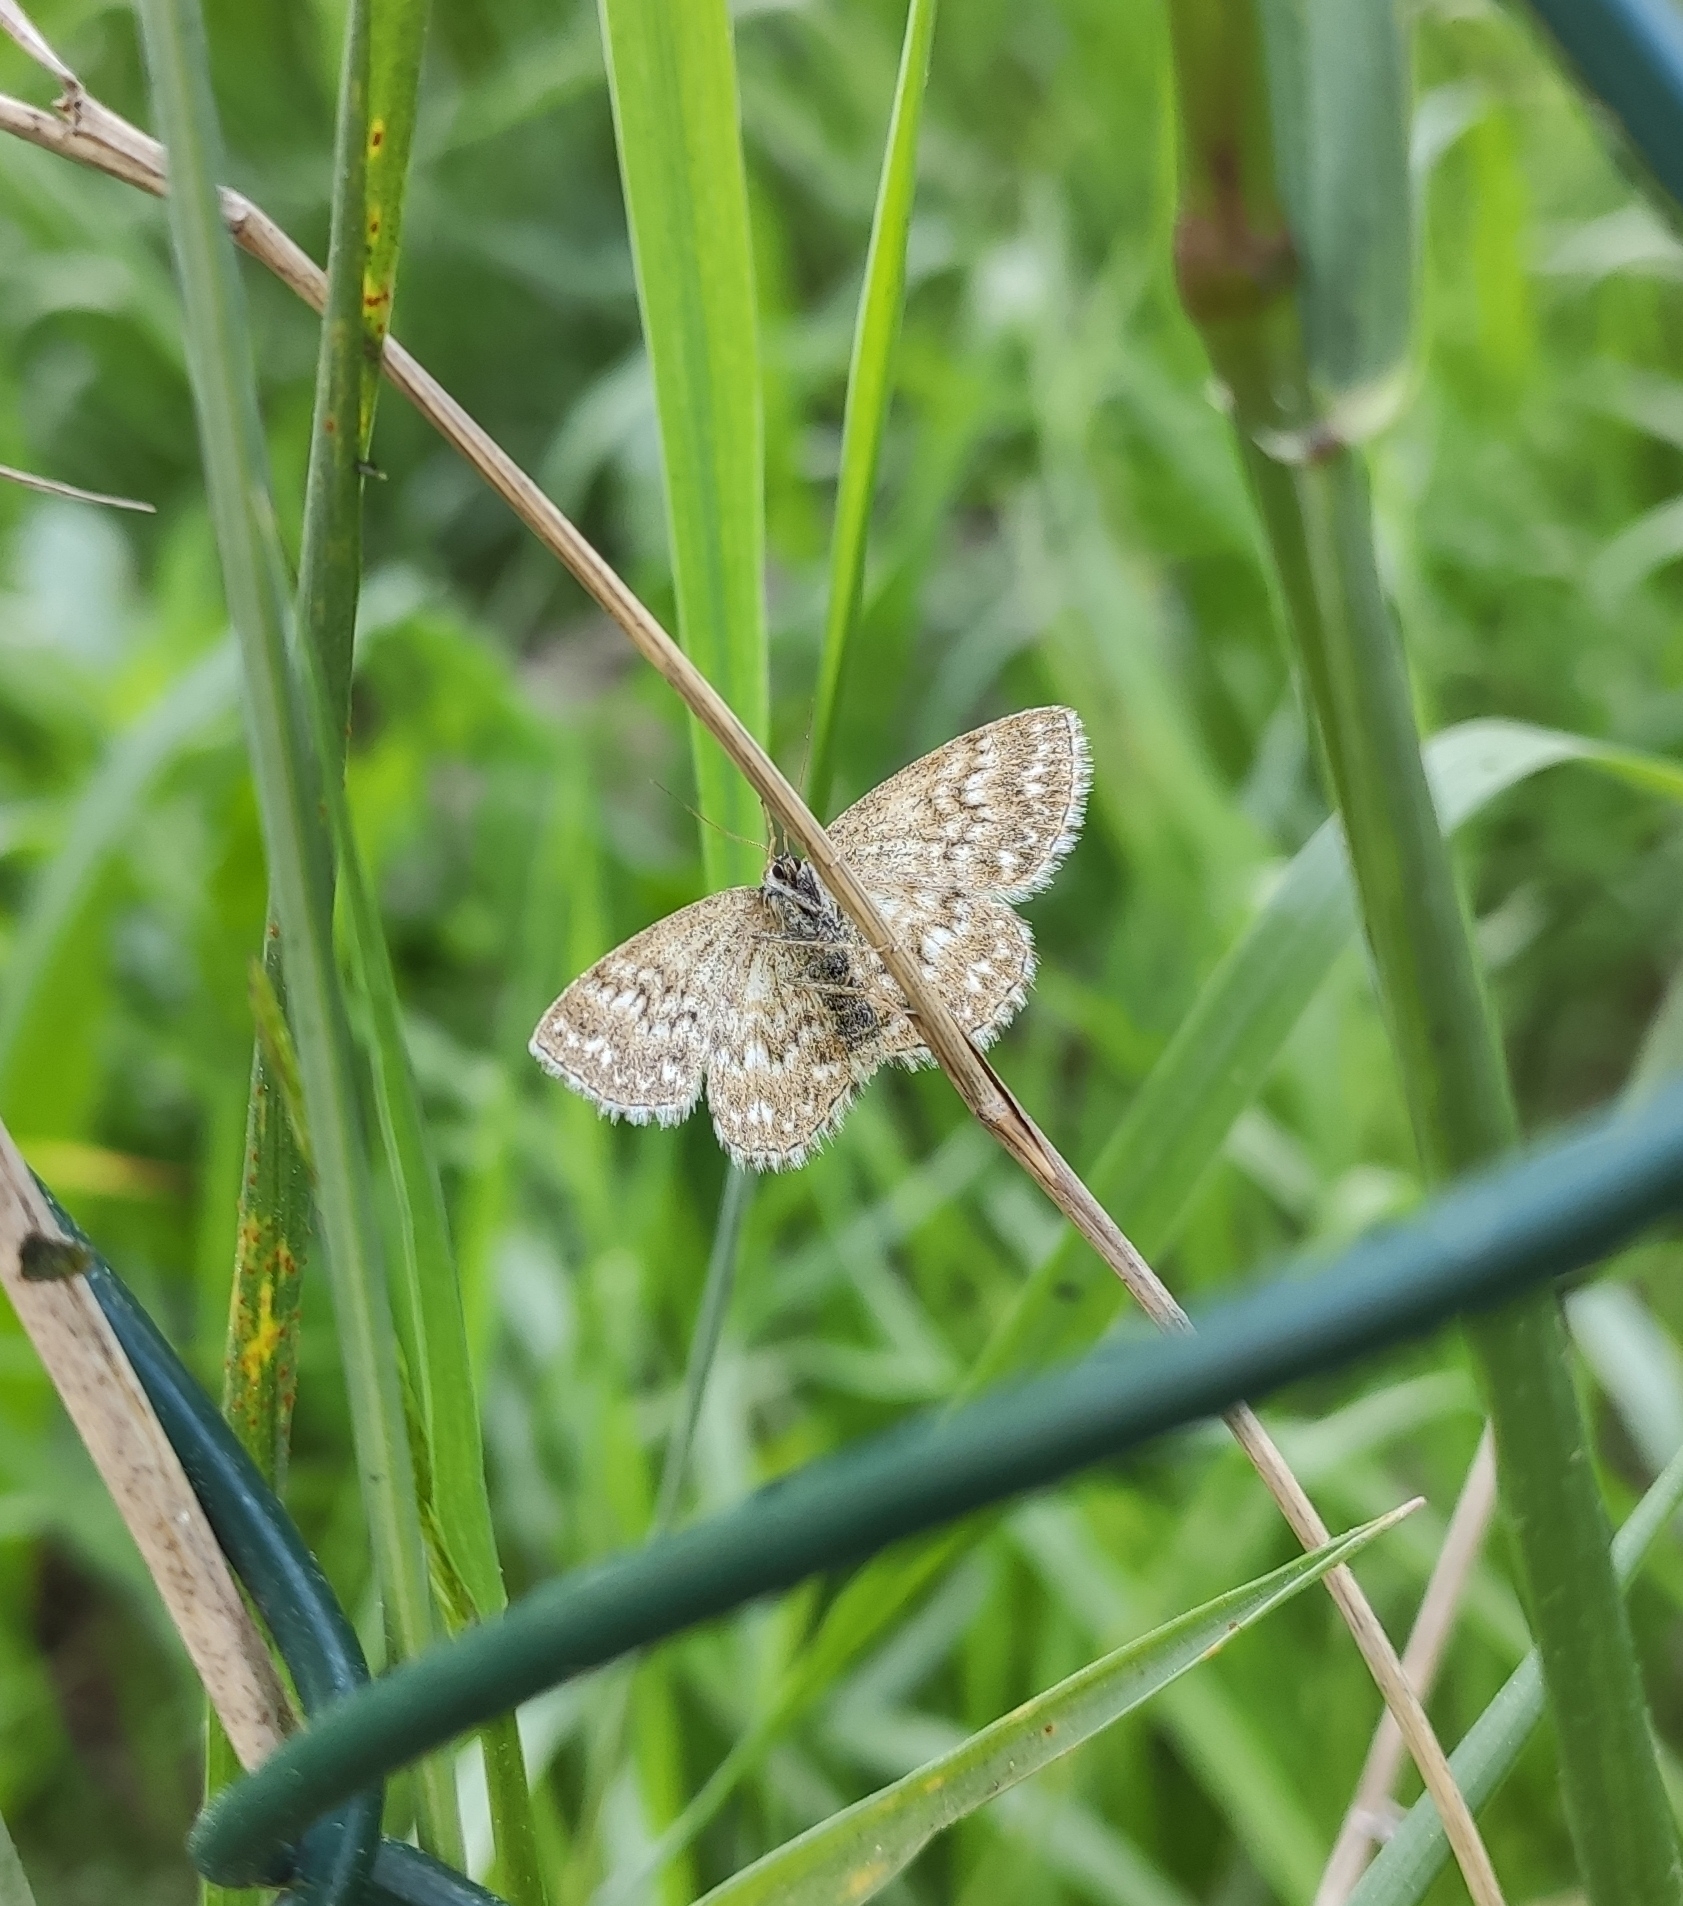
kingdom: Animalia
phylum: Arthropoda
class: Insecta
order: Lepidoptera
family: Geometridae
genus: Scopula
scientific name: Scopula immorata
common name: Lewes wave
